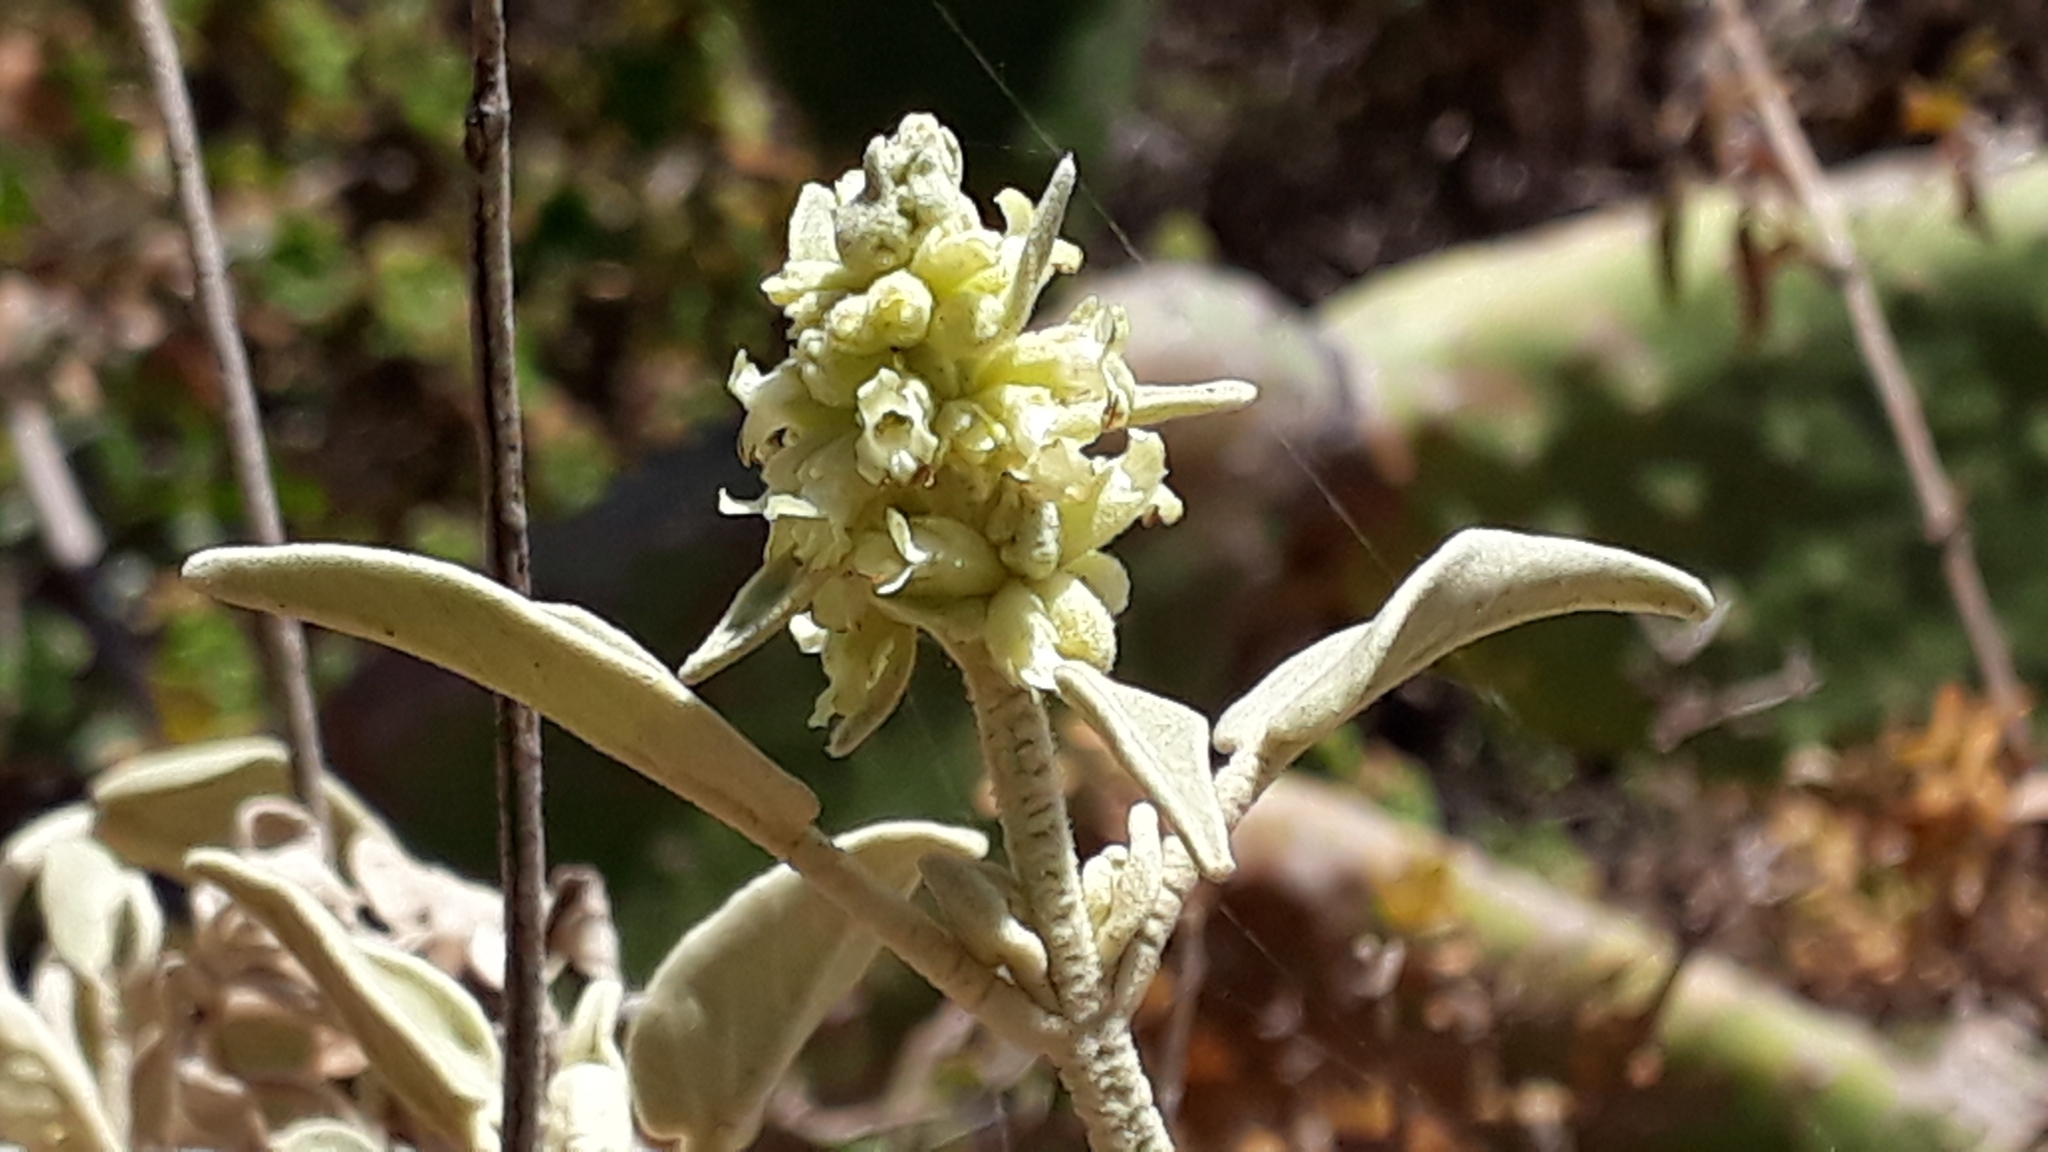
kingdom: Plantae
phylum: Tracheophyta
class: Magnoliopsida
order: Lamiales
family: Lamiaceae
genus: Sideritis
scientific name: Sideritis dendrochahorra
